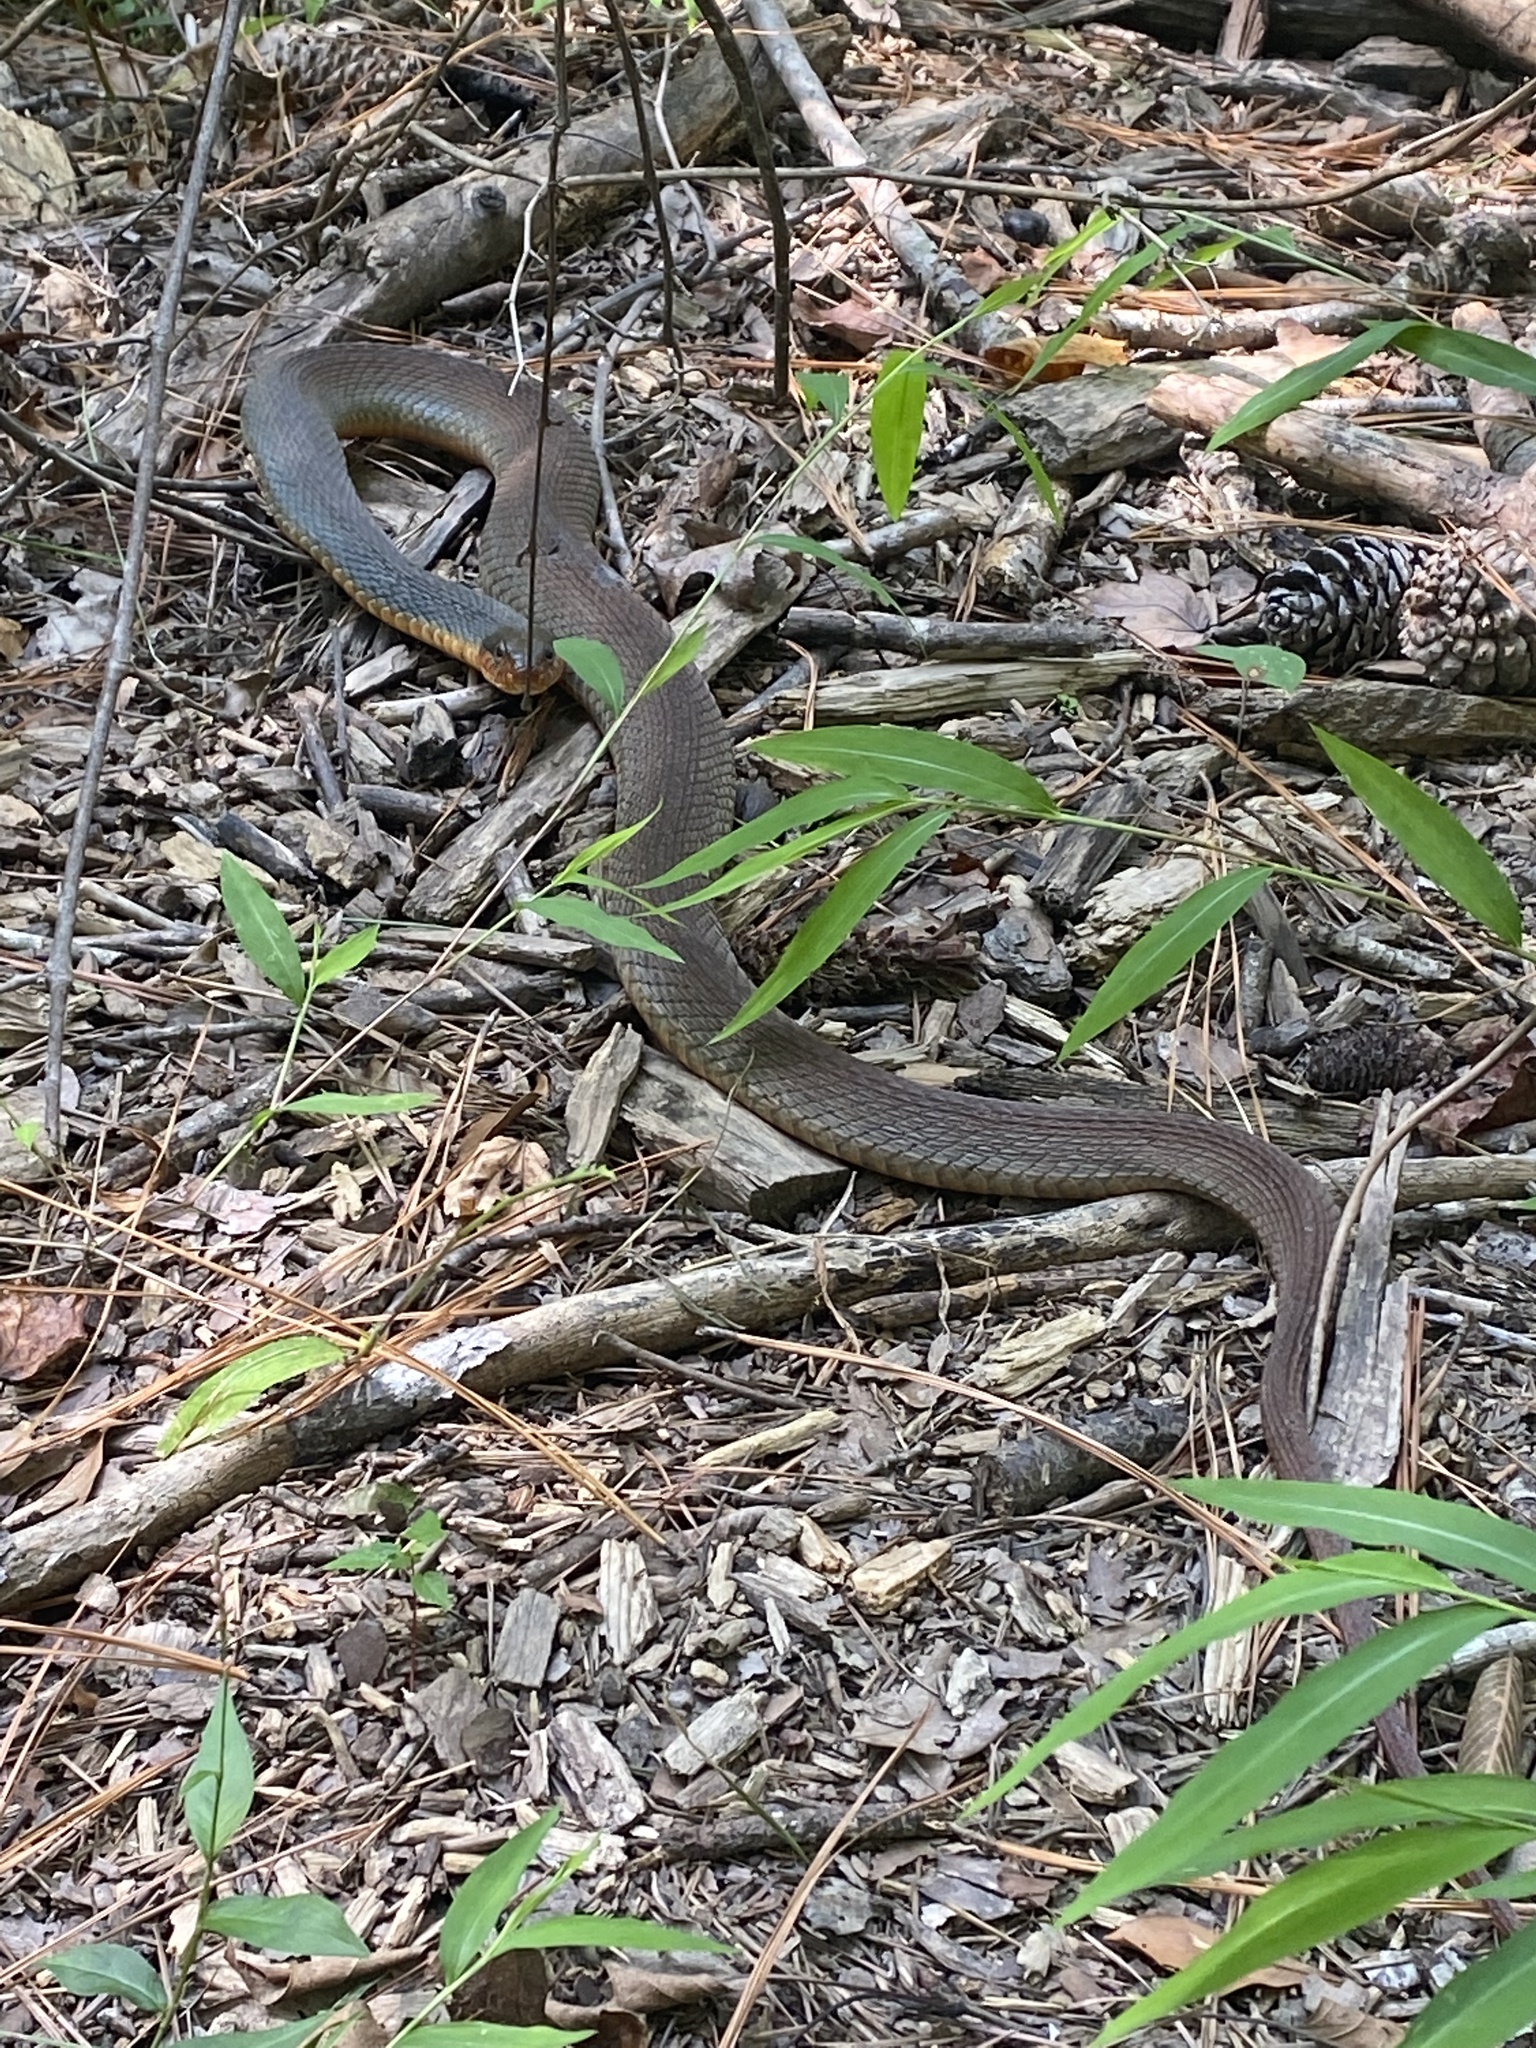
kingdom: Animalia
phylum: Chordata
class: Squamata
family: Colubridae
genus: Nerodia
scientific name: Nerodia erythrogaster
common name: Plainbelly water snake
